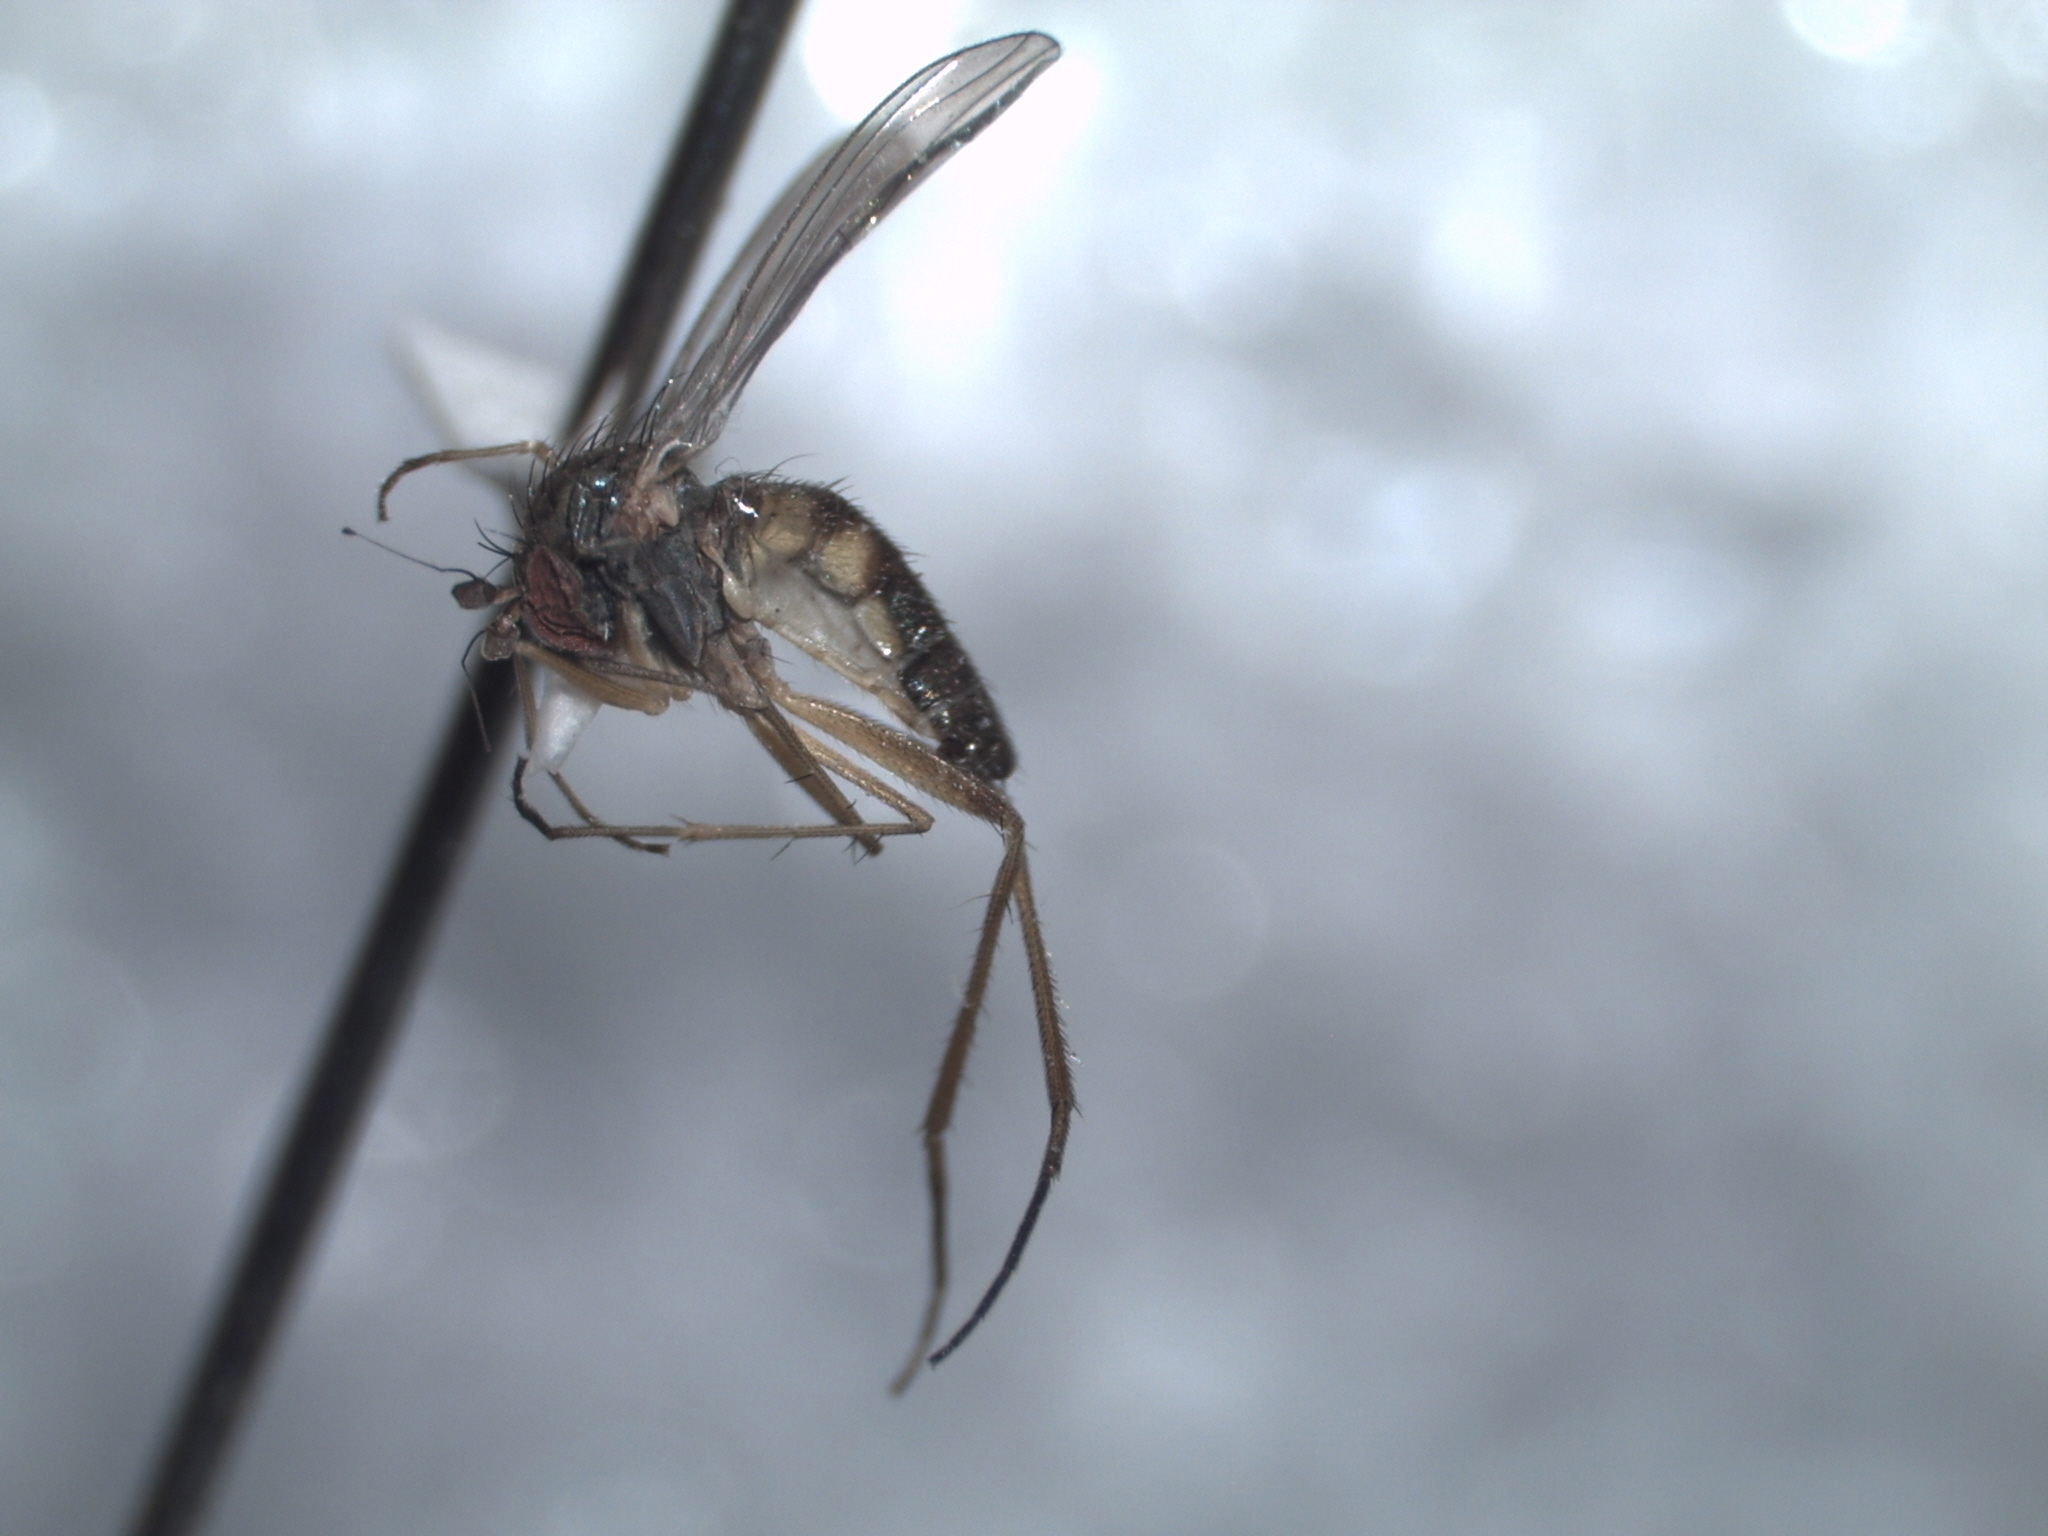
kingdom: Animalia
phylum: Arthropoda
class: Insecta
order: Diptera
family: Dolichopodidae
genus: Calyxochaetus
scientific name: Calyxochaetus
